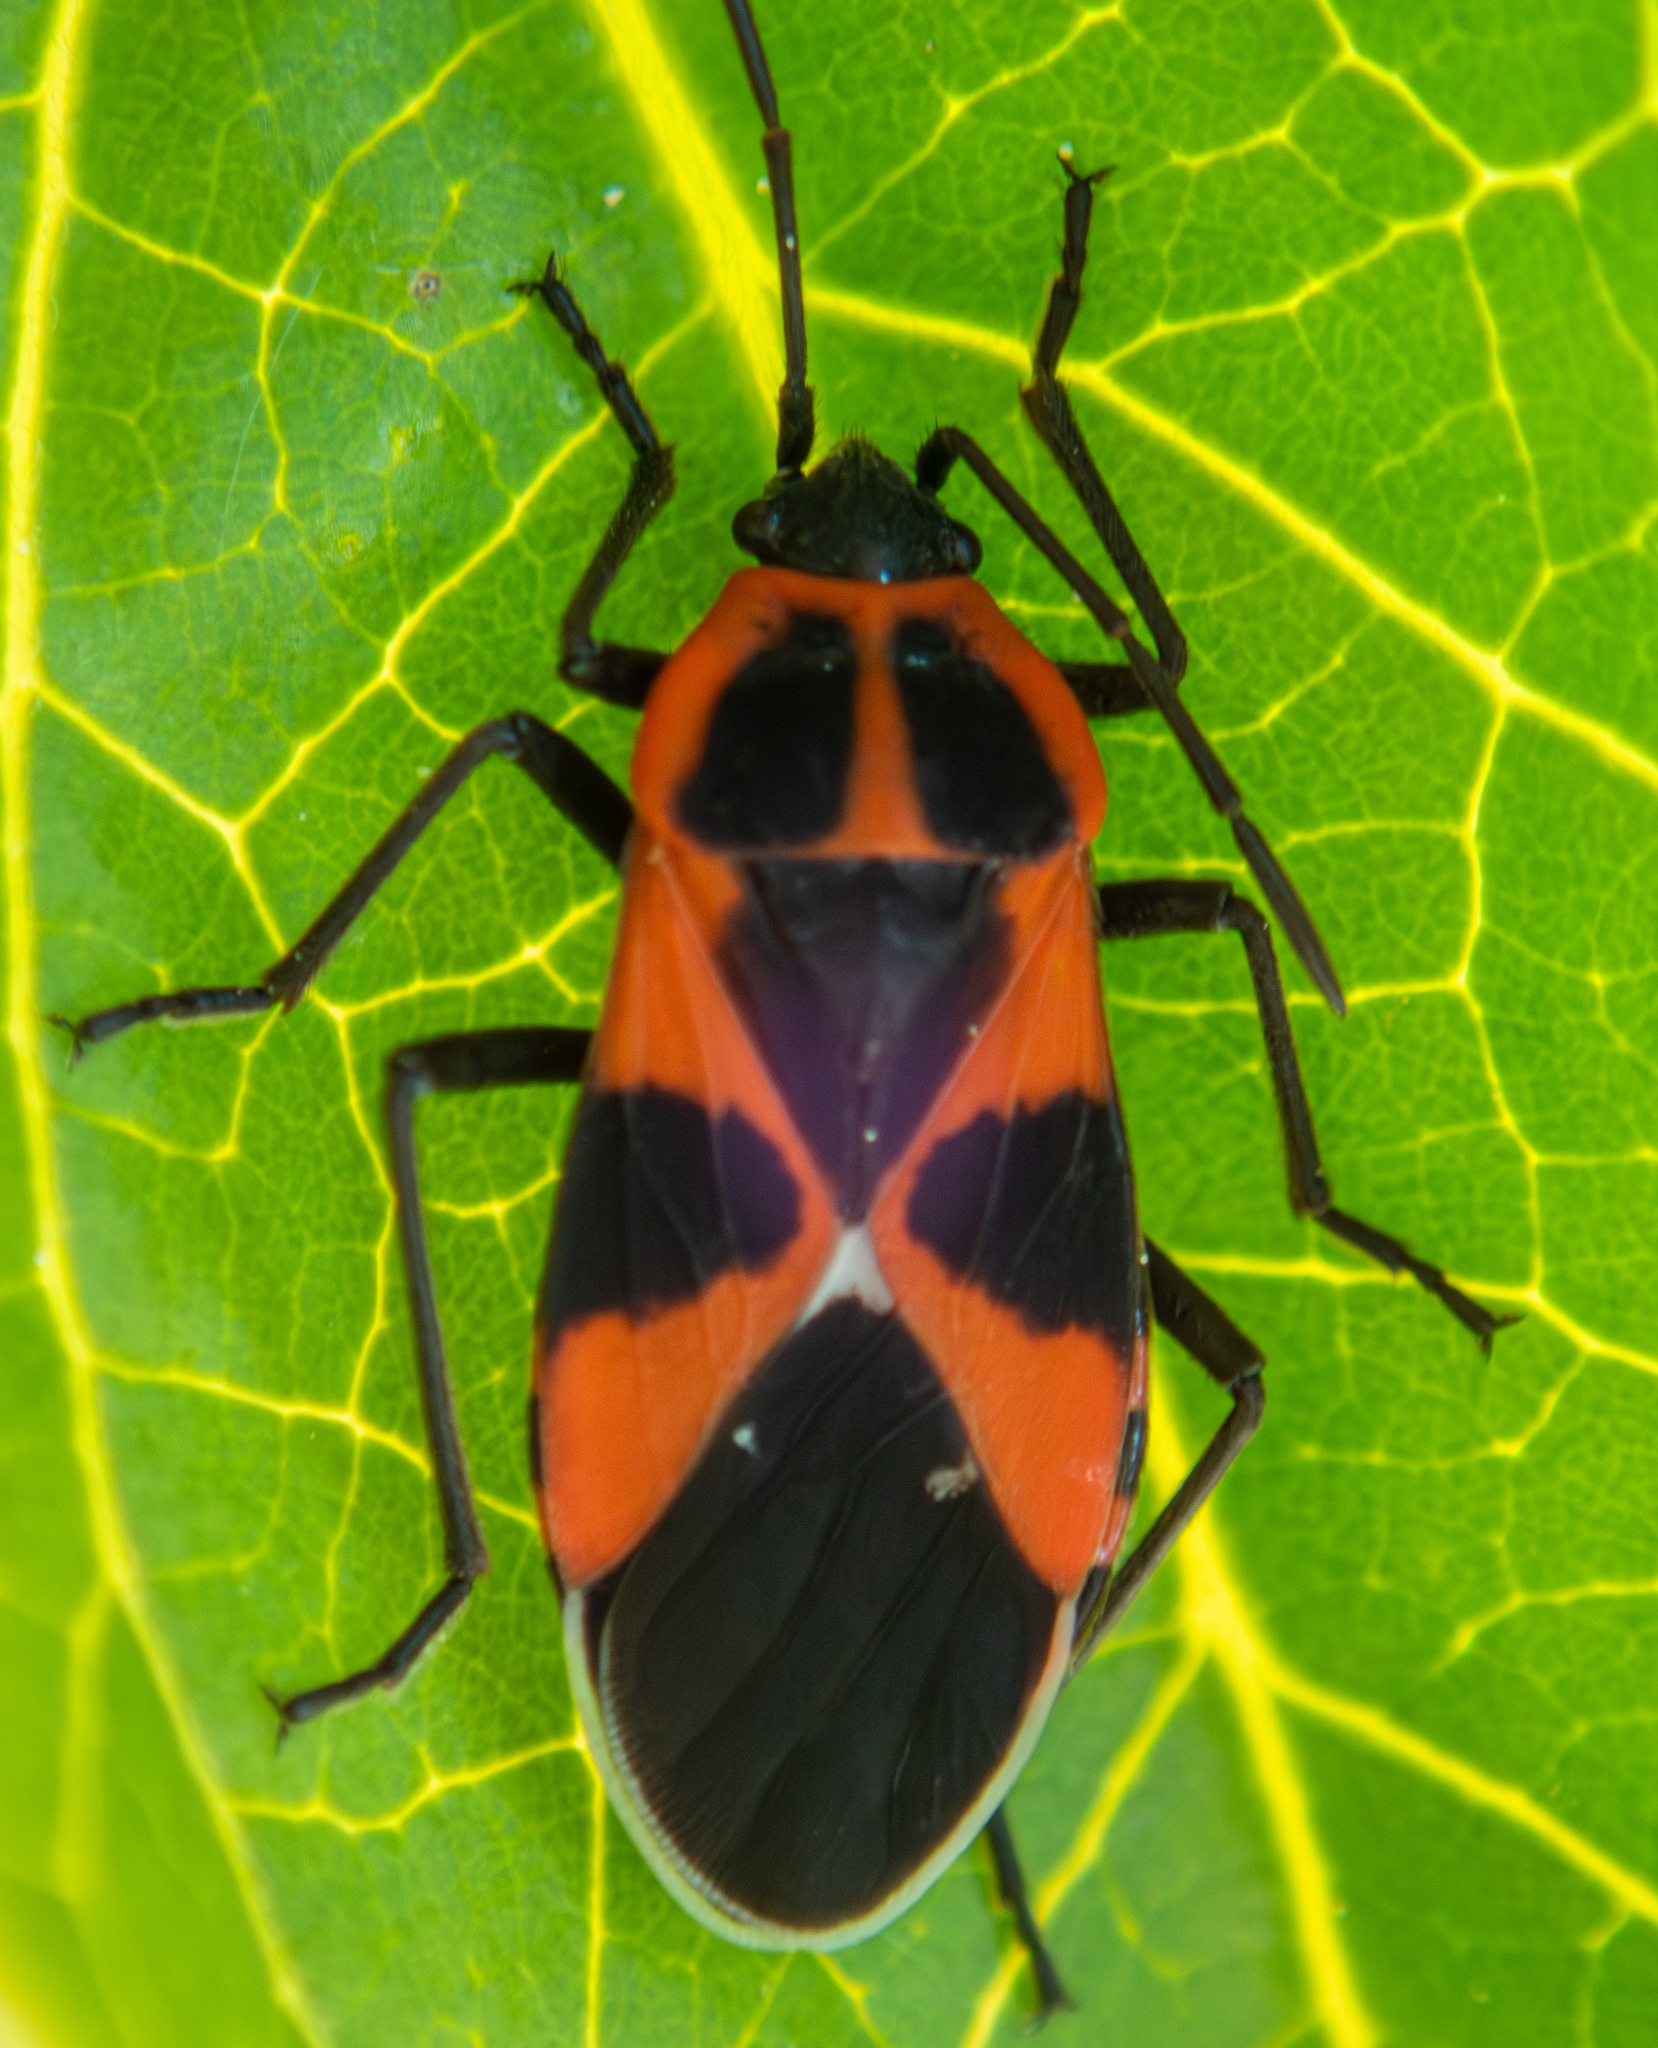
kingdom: Animalia
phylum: Arthropoda
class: Insecta
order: Hemiptera
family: Lygaeidae
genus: Tropidothorax
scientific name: Tropidothorax leucopterus
